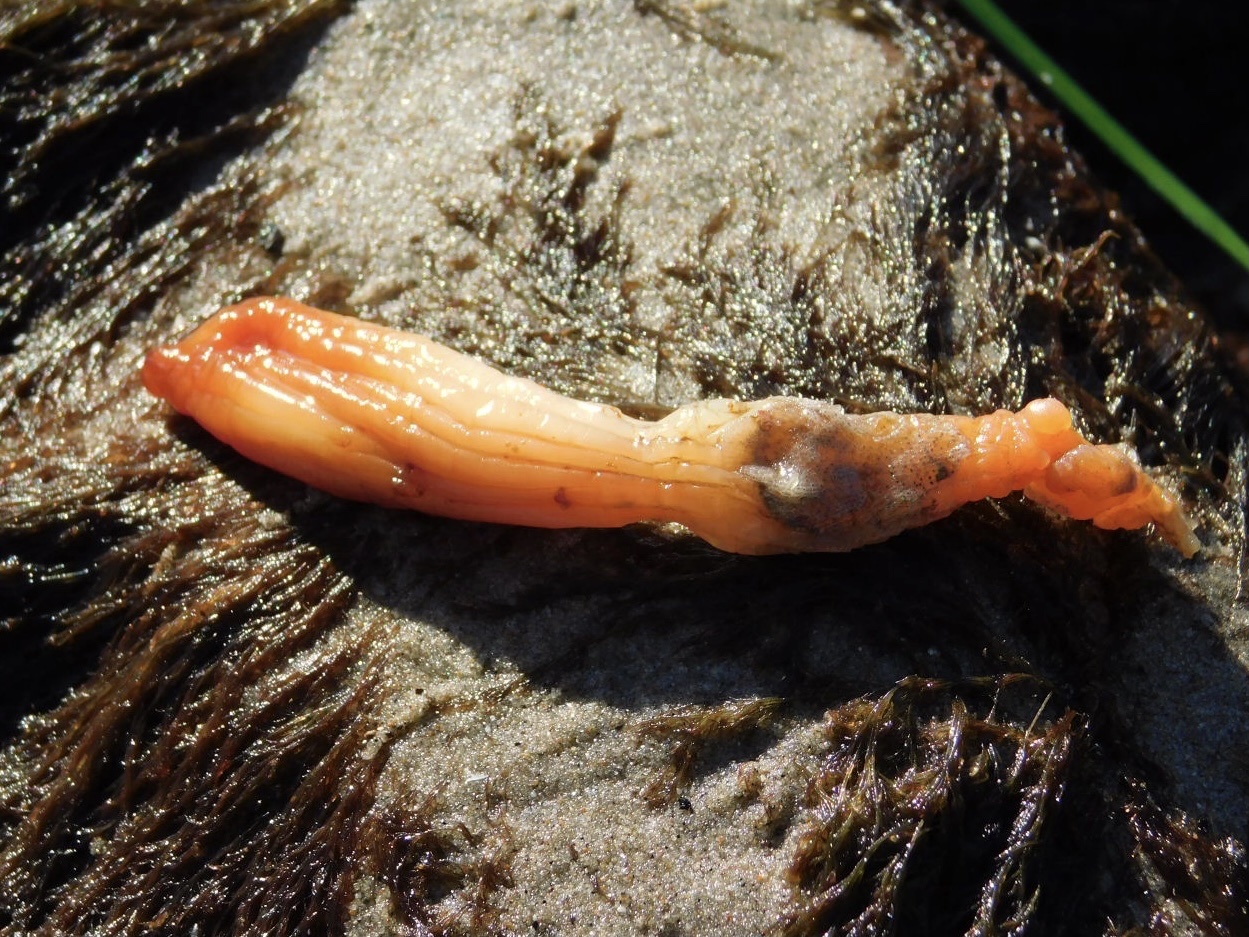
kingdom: Animalia
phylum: Chordata
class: Ascidiacea
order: Stolidobranchia
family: Styelidae
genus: Styela
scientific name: Styela montereyensis
